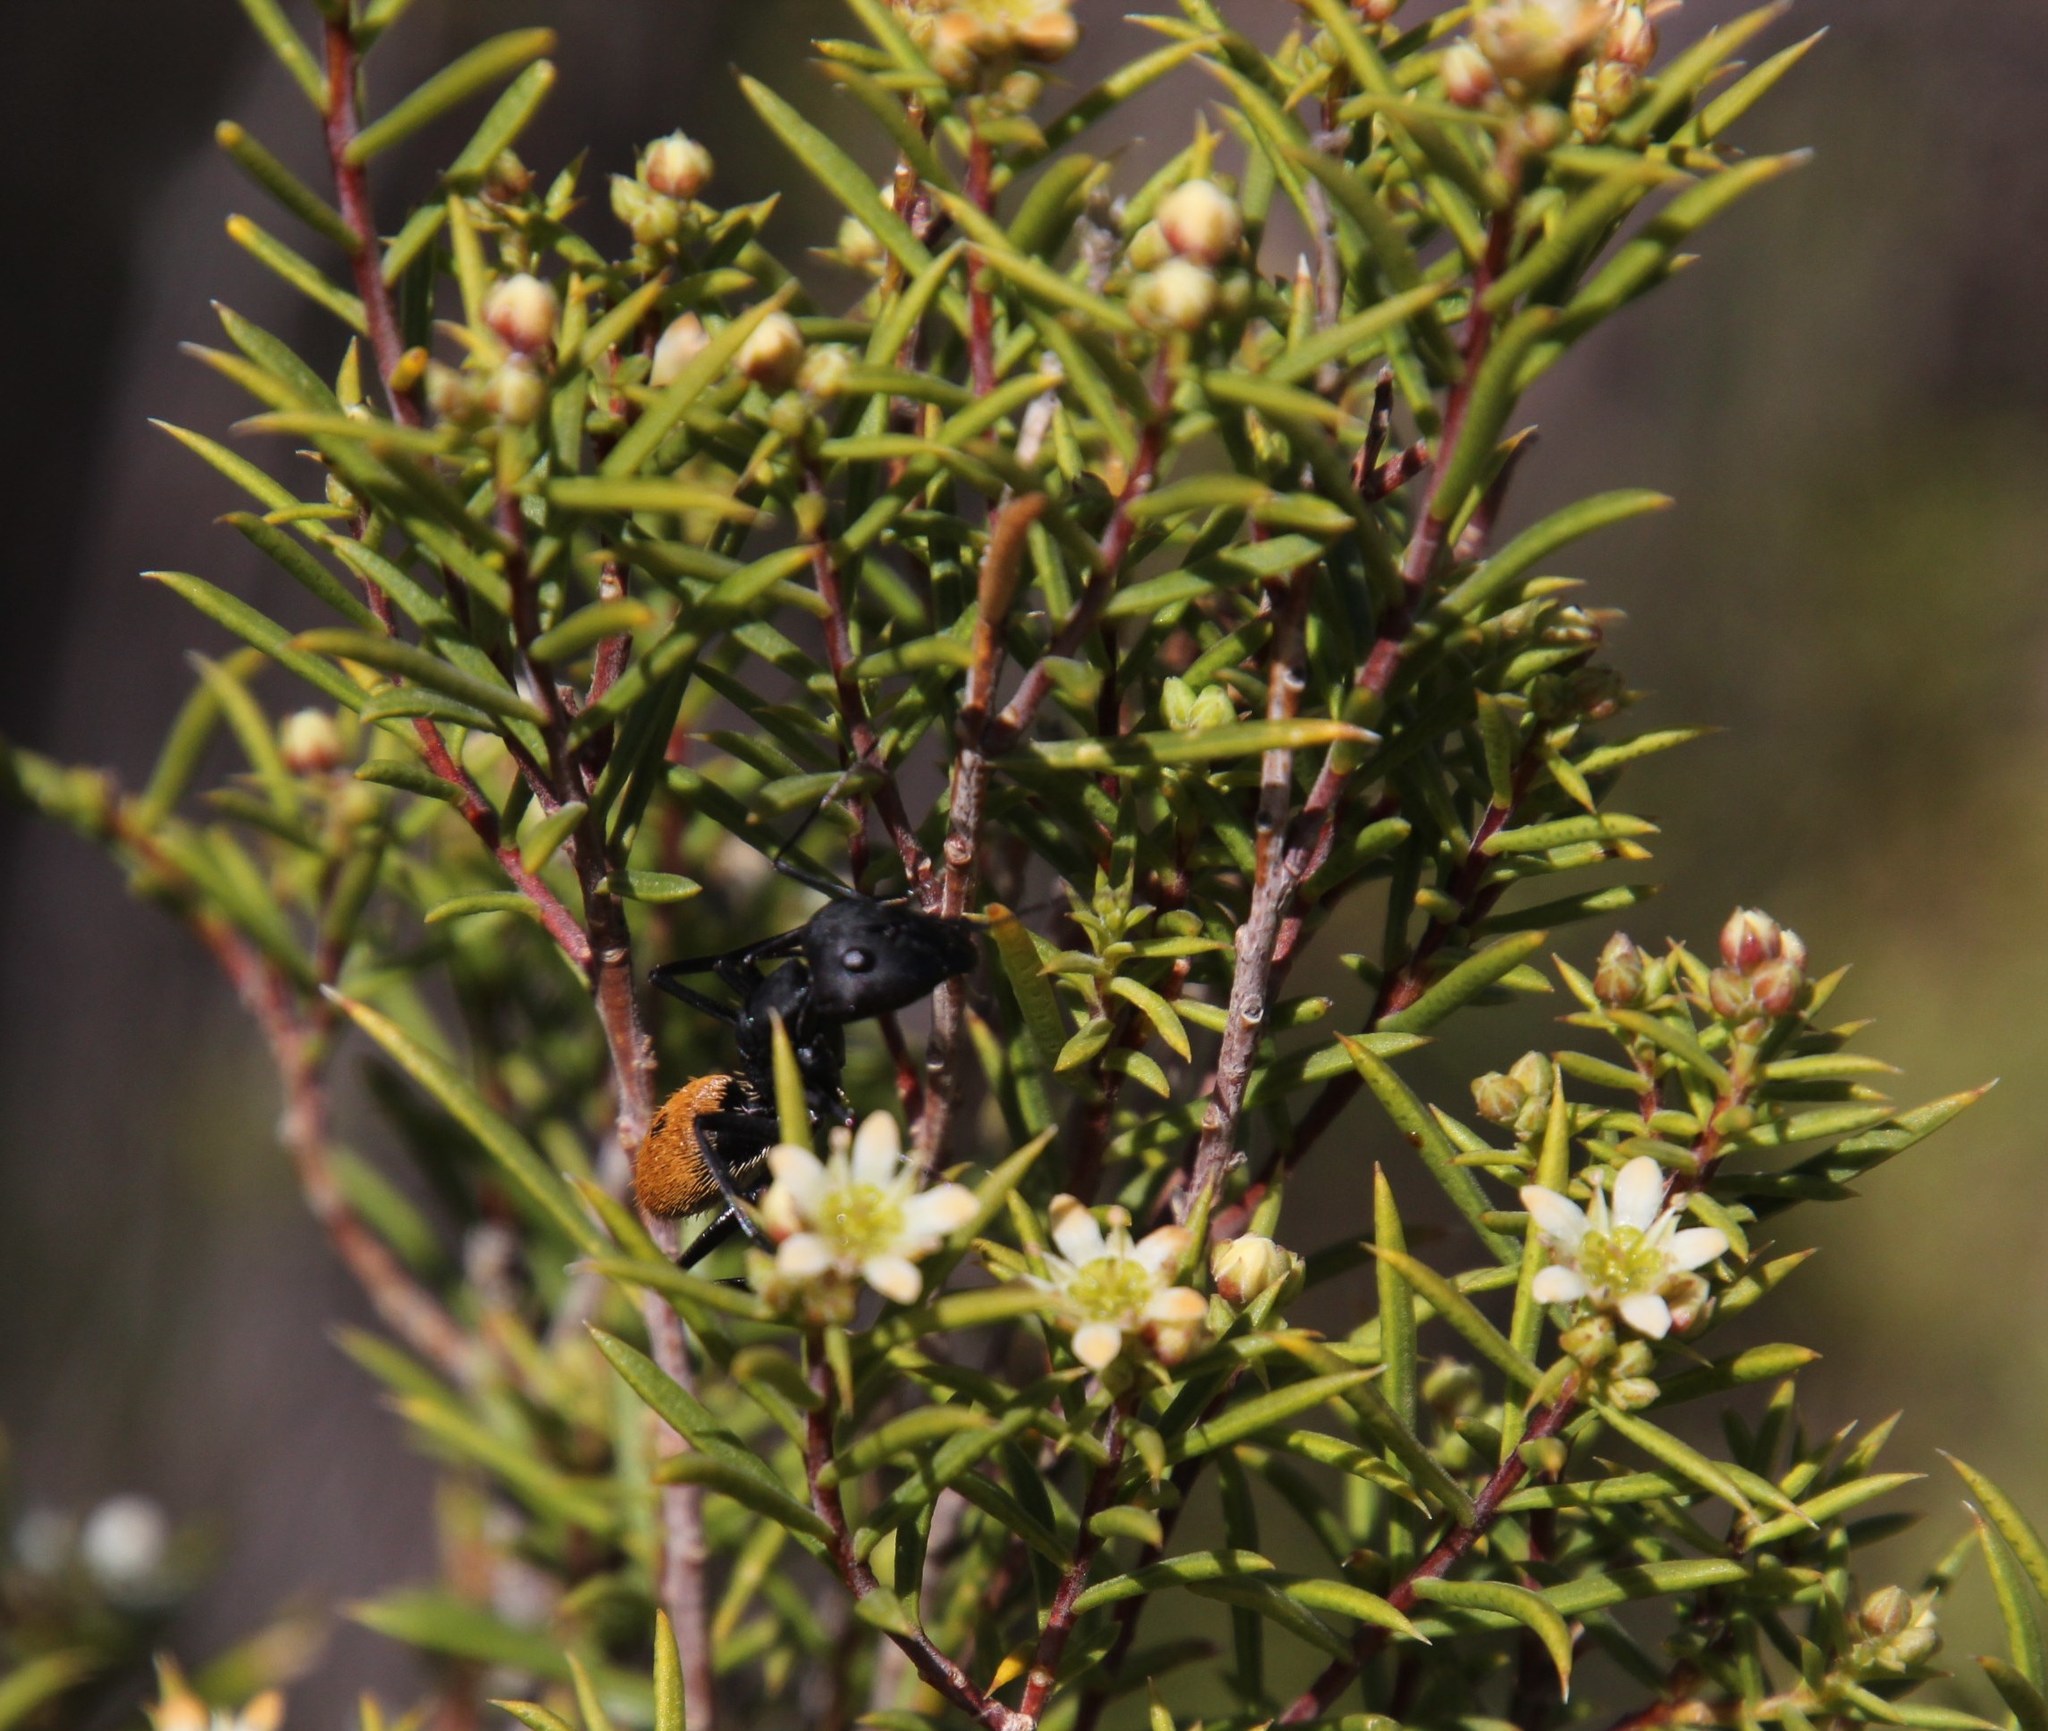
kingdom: Plantae
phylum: Tracheophyta
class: Magnoliopsida
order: Sapindales
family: Rutaceae
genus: Diosma
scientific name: Diosma acmaeophylla
